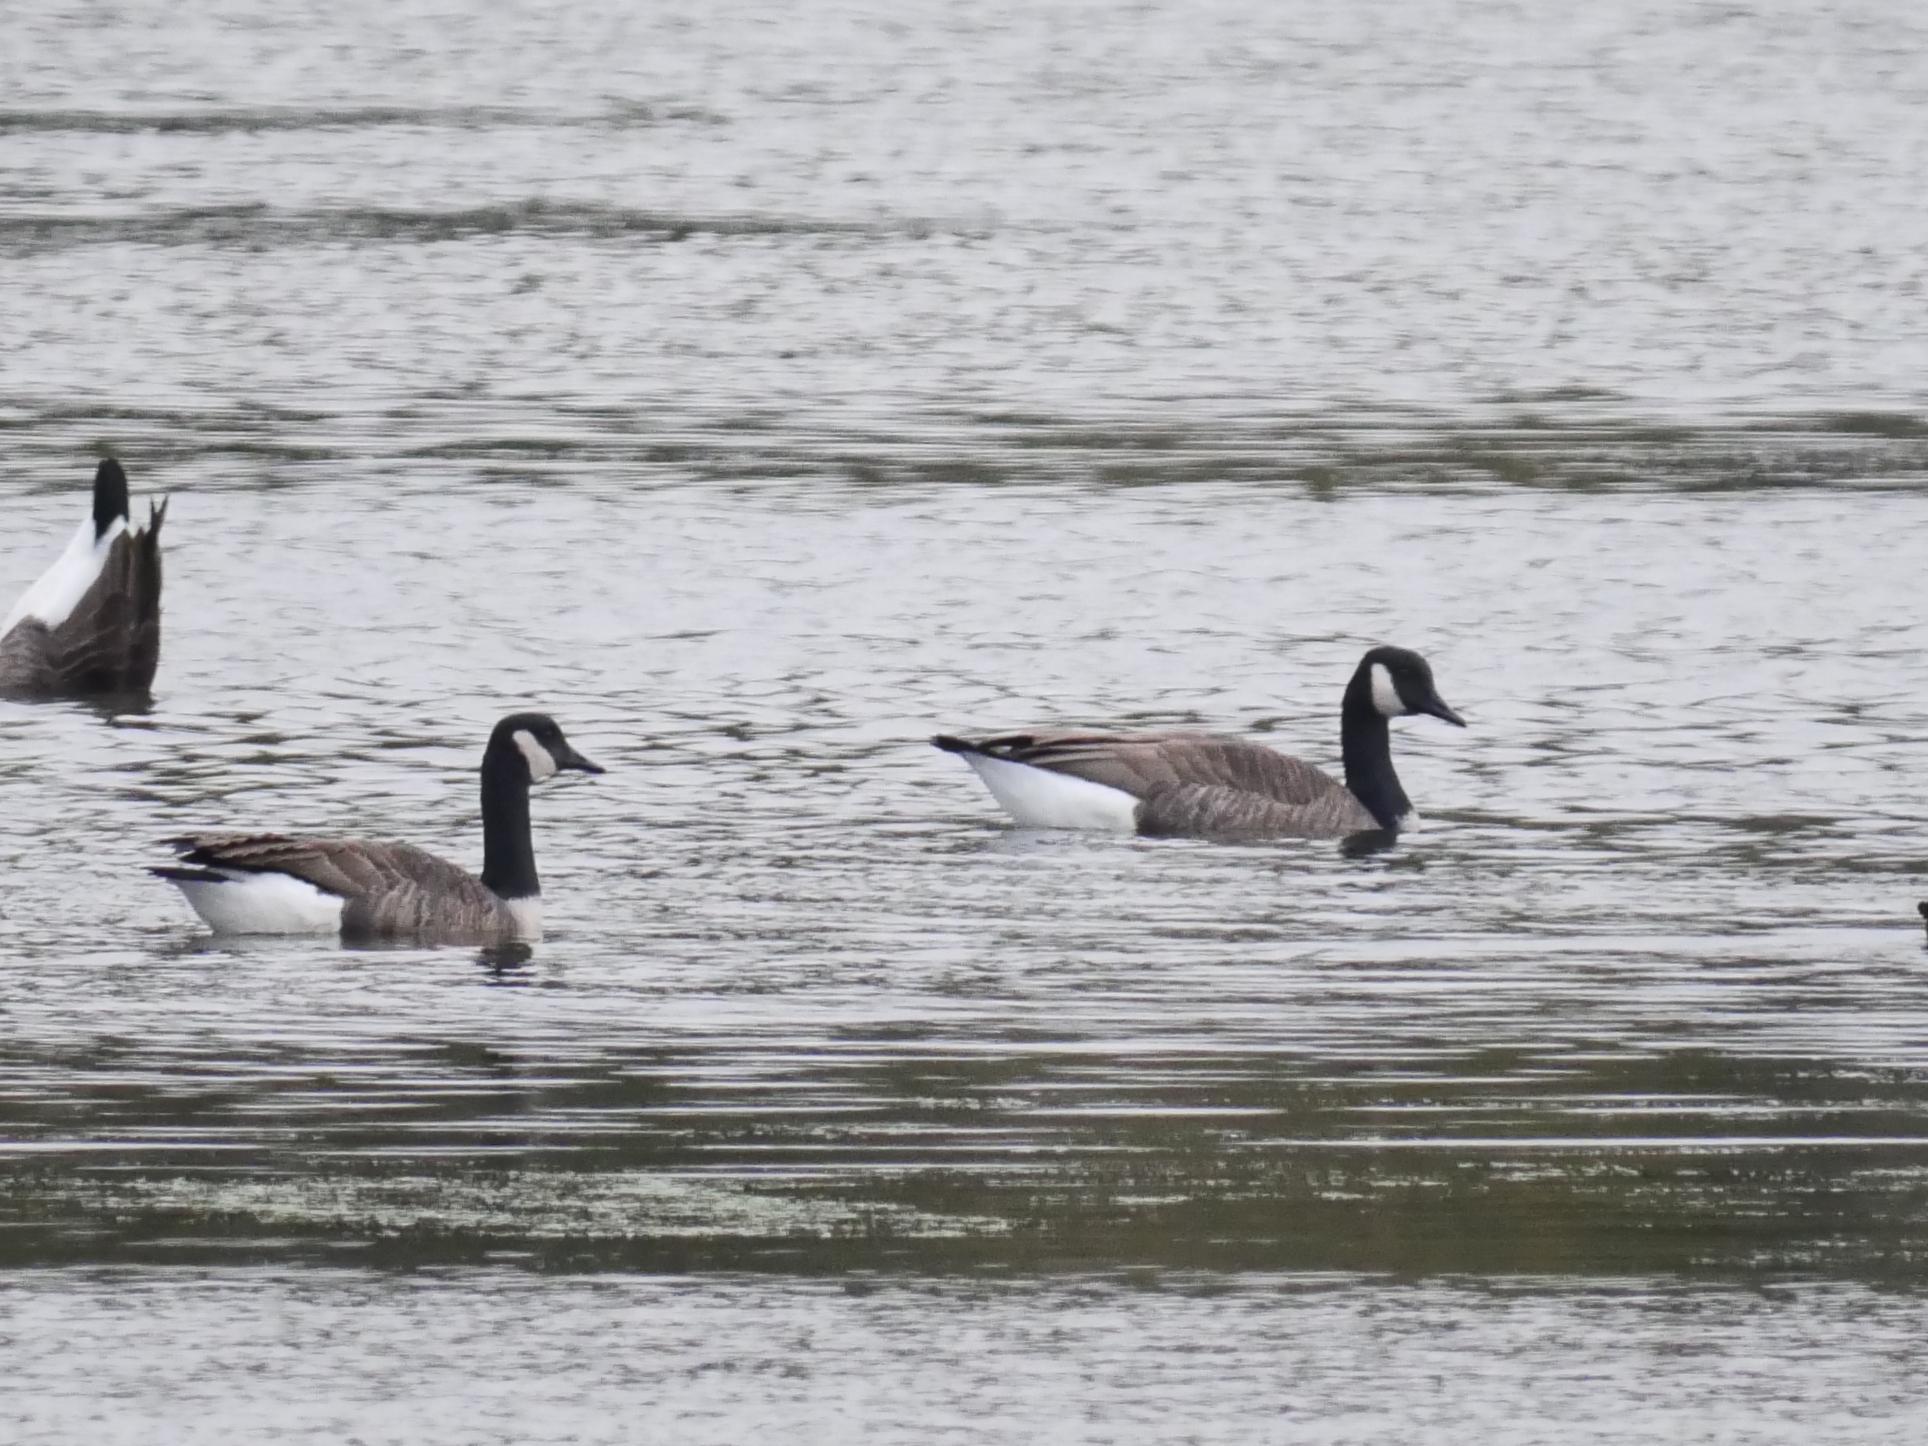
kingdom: Animalia
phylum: Chordata
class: Aves
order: Anseriformes
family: Anatidae
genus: Branta
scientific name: Branta canadensis
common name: Canada goose
